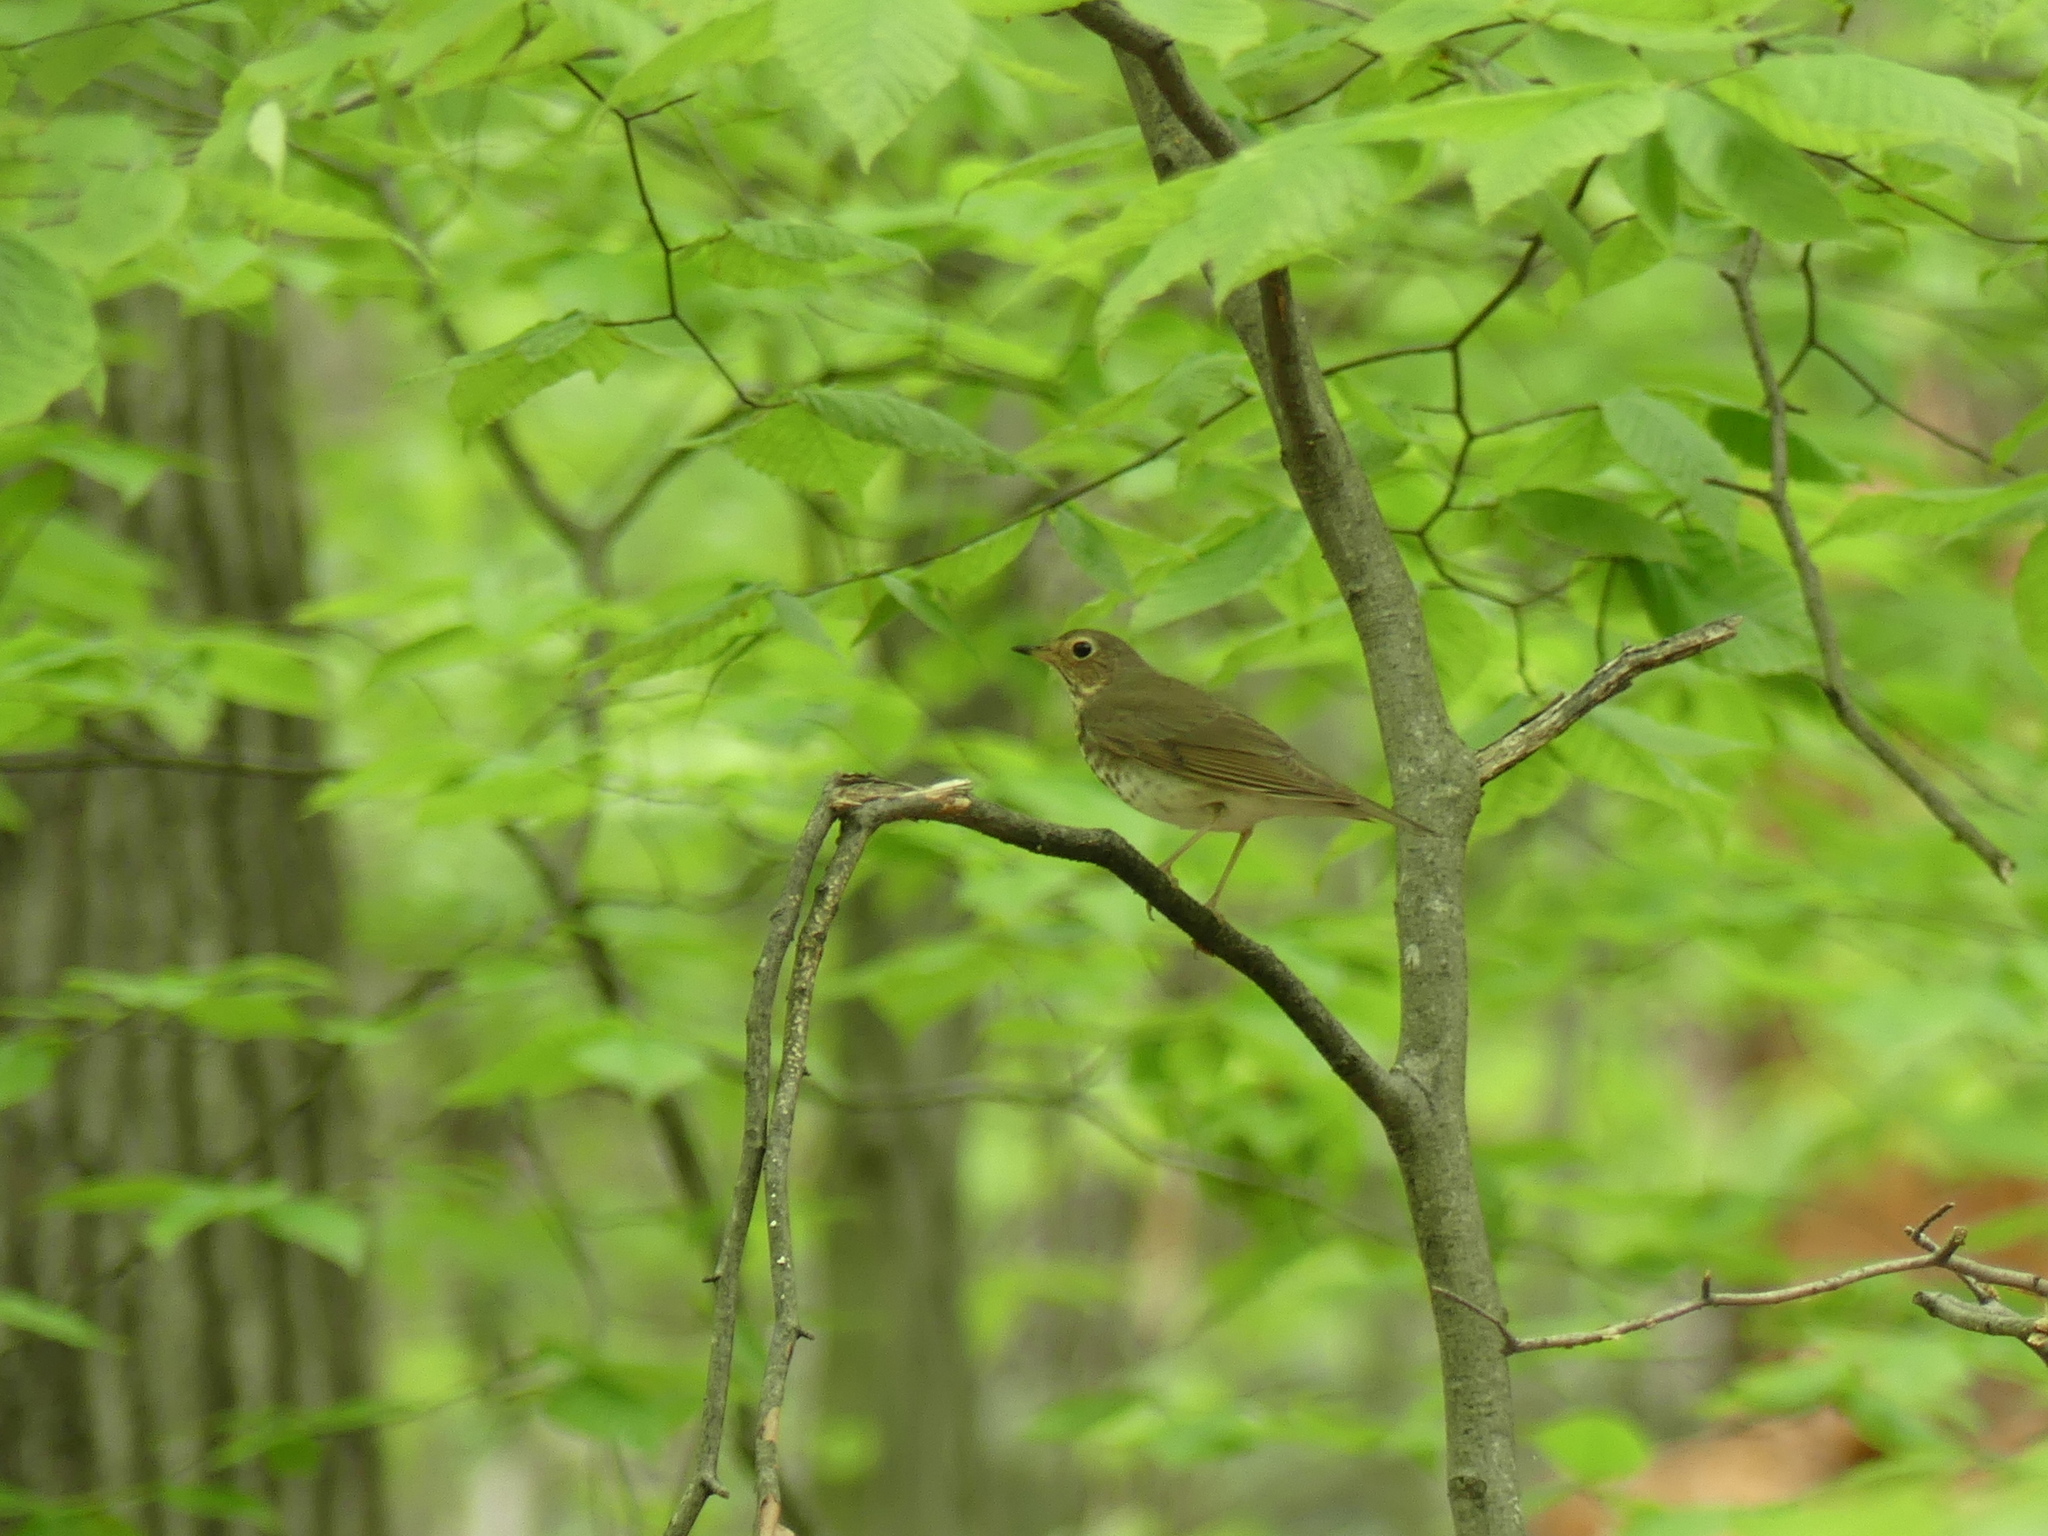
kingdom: Animalia
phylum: Chordata
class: Aves
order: Passeriformes
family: Turdidae
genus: Catharus
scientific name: Catharus ustulatus
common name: Swainson's thrush
